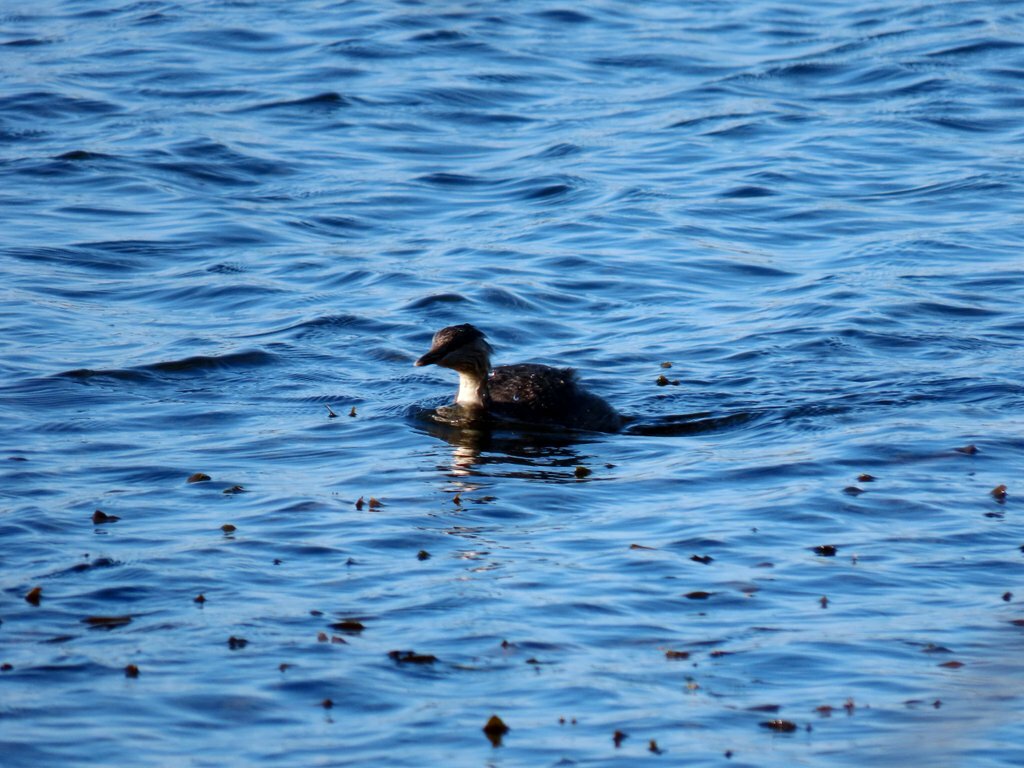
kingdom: Animalia
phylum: Chordata
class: Aves
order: Podicipediformes
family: Podicipedidae
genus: Poliocephalus
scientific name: Poliocephalus poliocephalus
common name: Hoary-headed grebe
